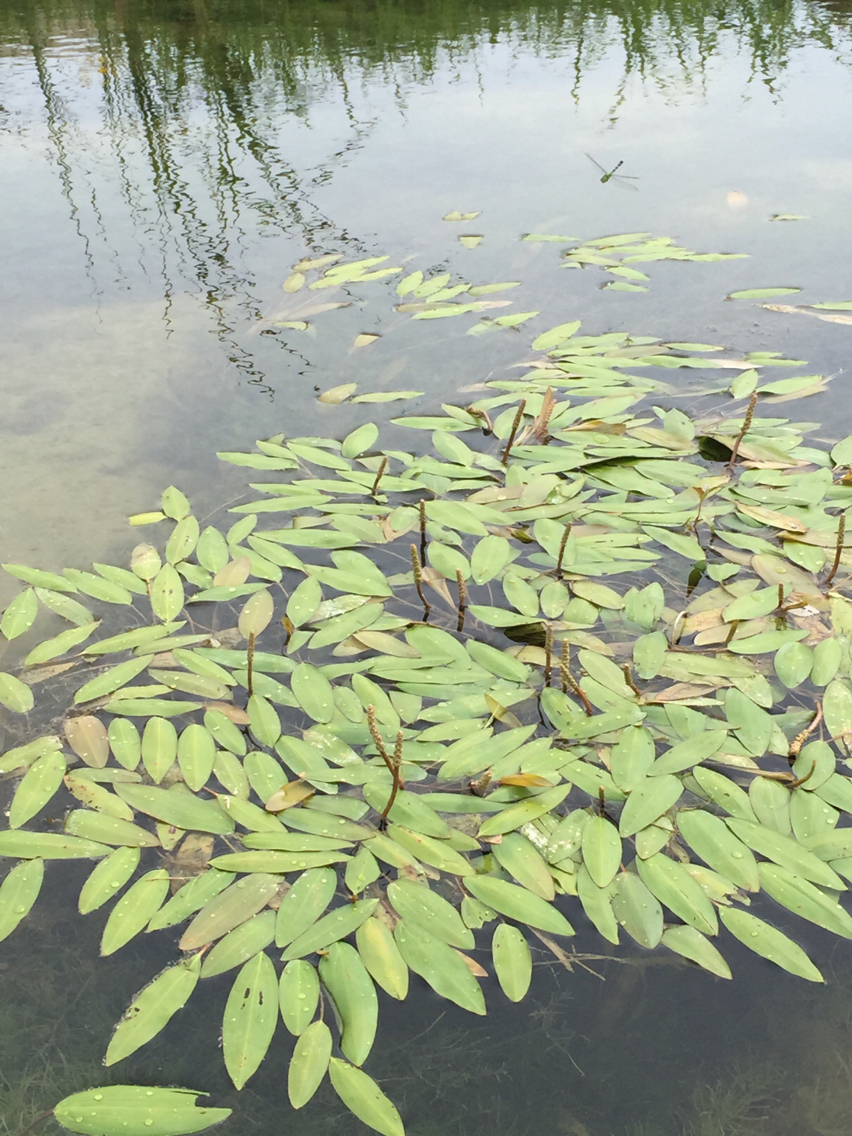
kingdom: Plantae
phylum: Tracheophyta
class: Liliopsida
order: Alismatales
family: Potamogetonaceae
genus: Potamogeton
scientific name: Potamogeton nodosus
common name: Loddon pondweed
